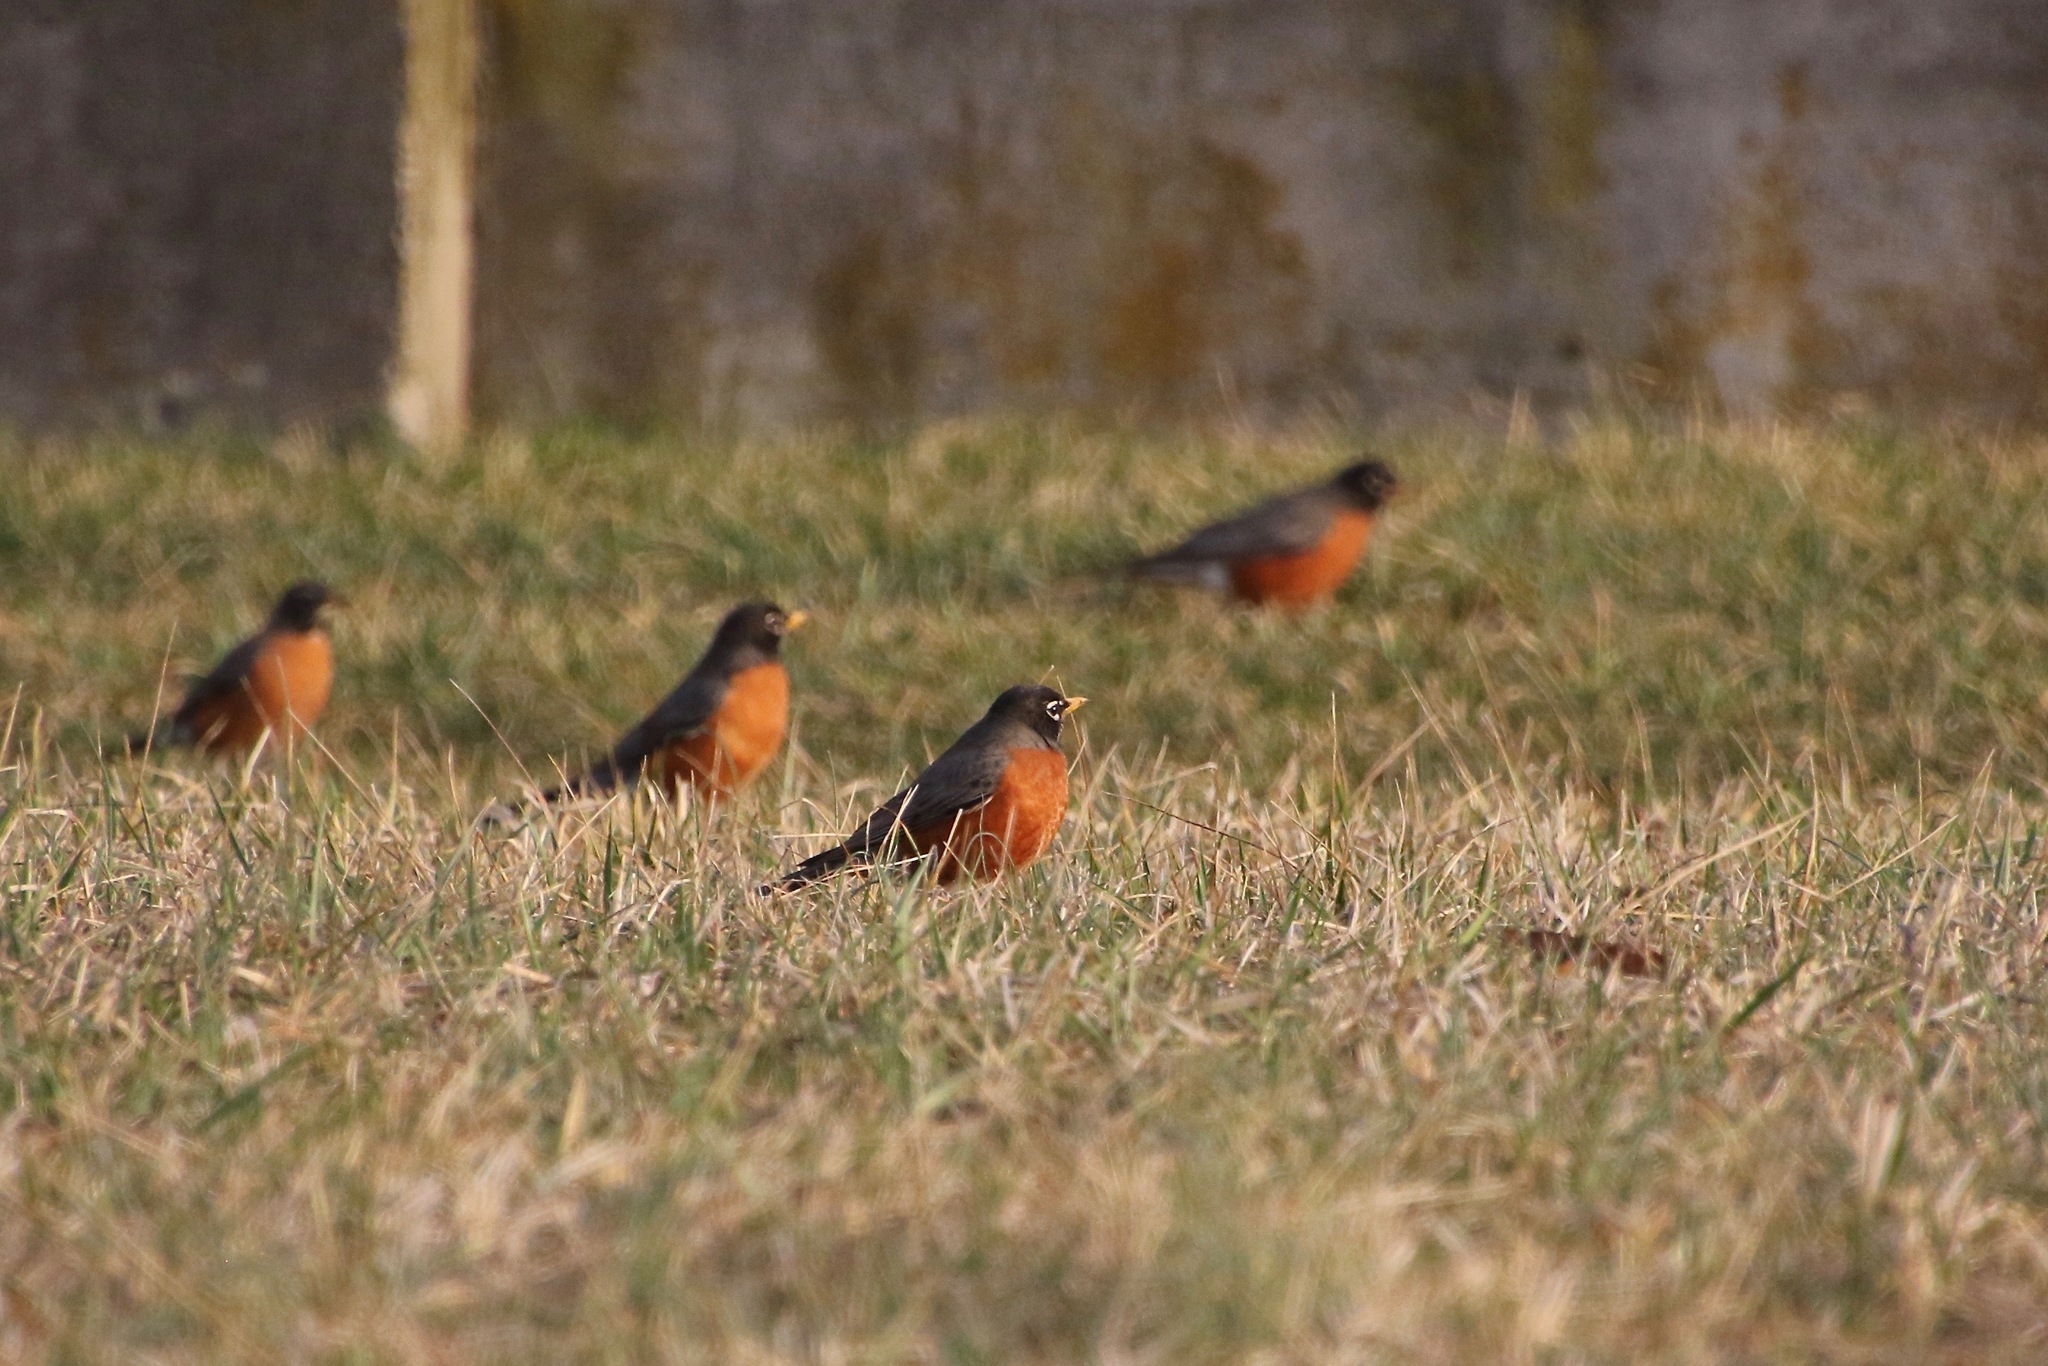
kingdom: Animalia
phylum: Chordata
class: Aves
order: Passeriformes
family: Turdidae
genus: Turdus
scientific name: Turdus migratorius
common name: American robin
